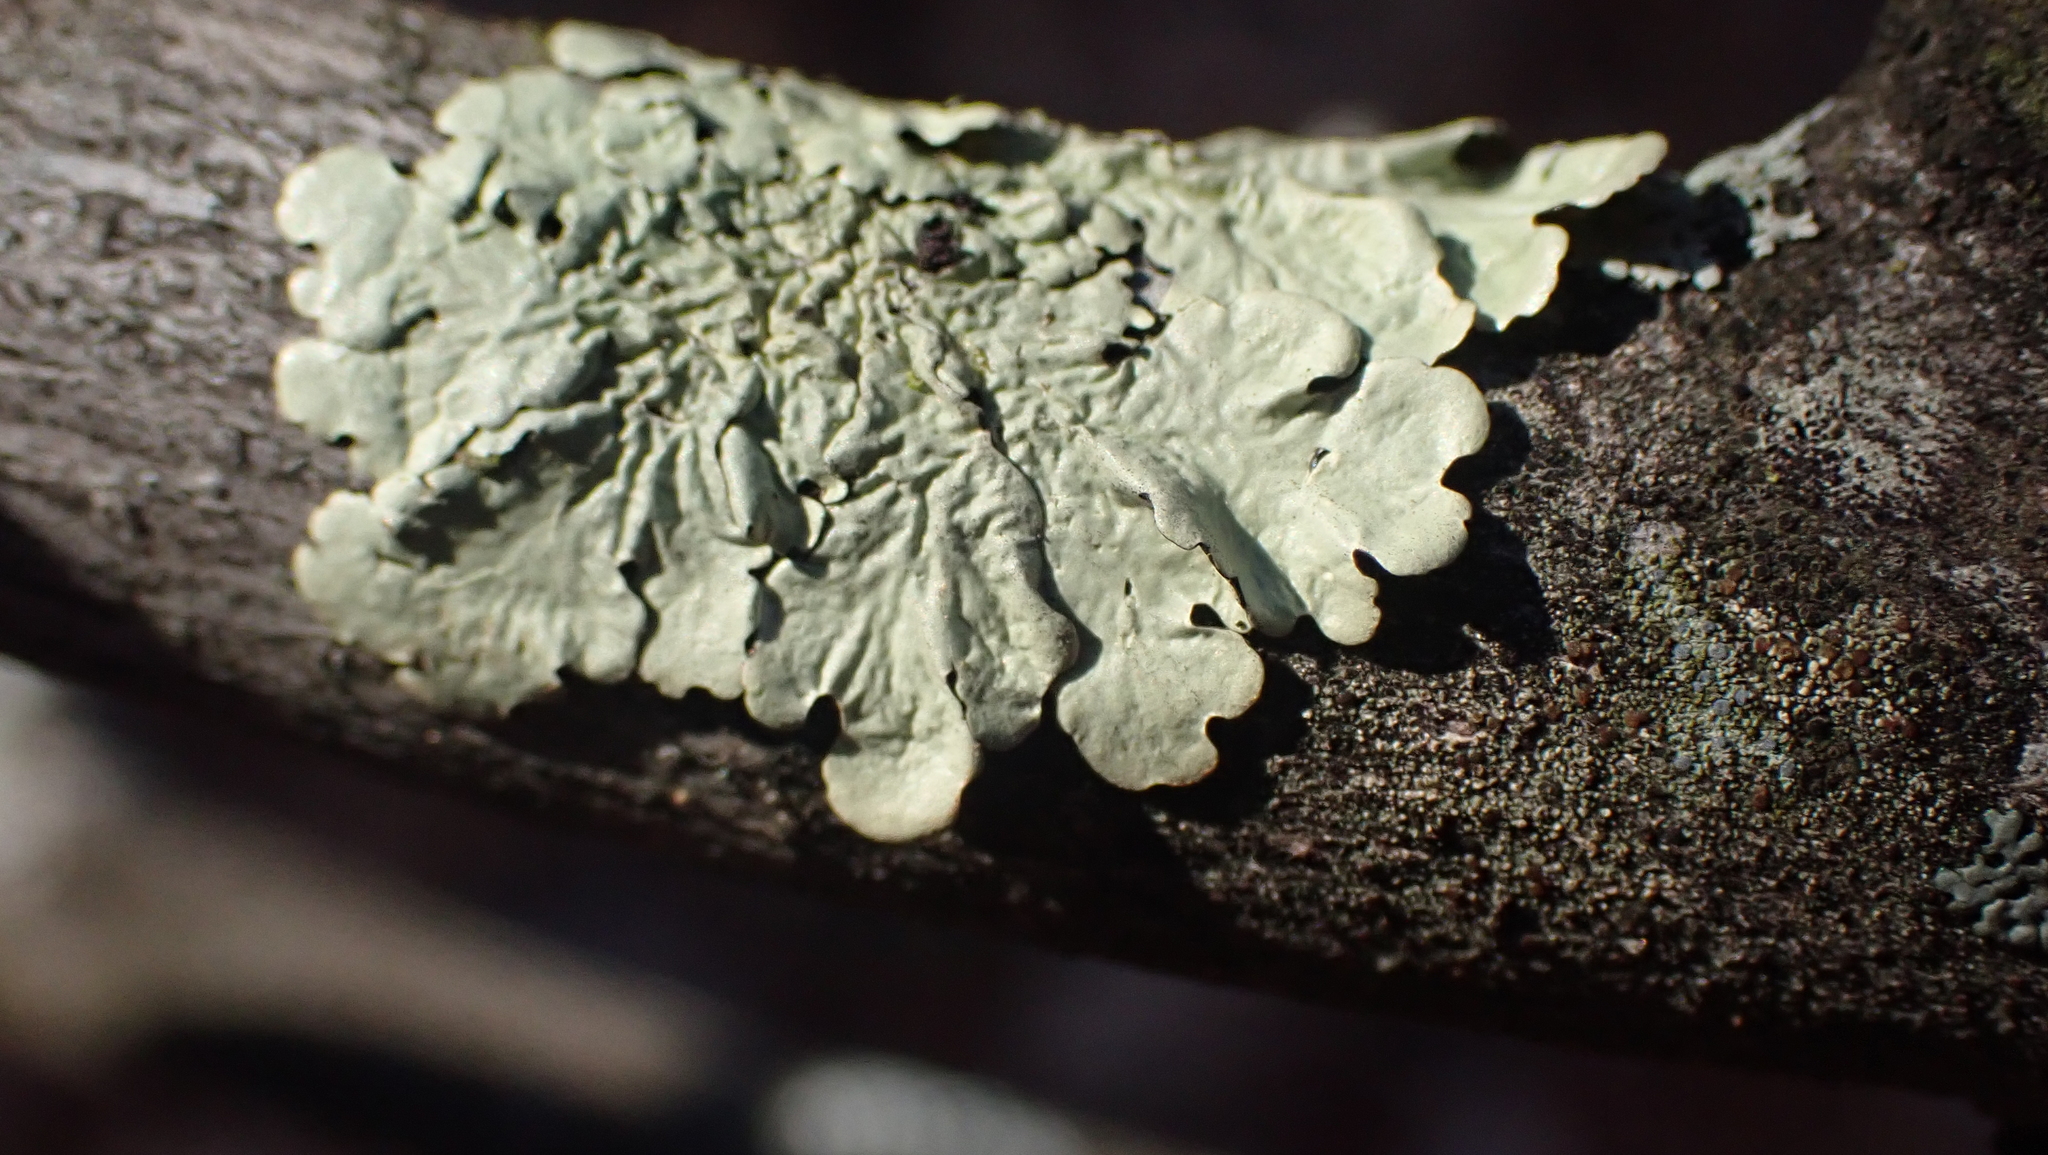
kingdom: Fungi
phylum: Ascomycota
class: Lecanoromycetes
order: Lecanorales
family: Parmeliaceae
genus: Flavoparmelia
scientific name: Flavoparmelia caperata
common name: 40-mile per hour lichen
